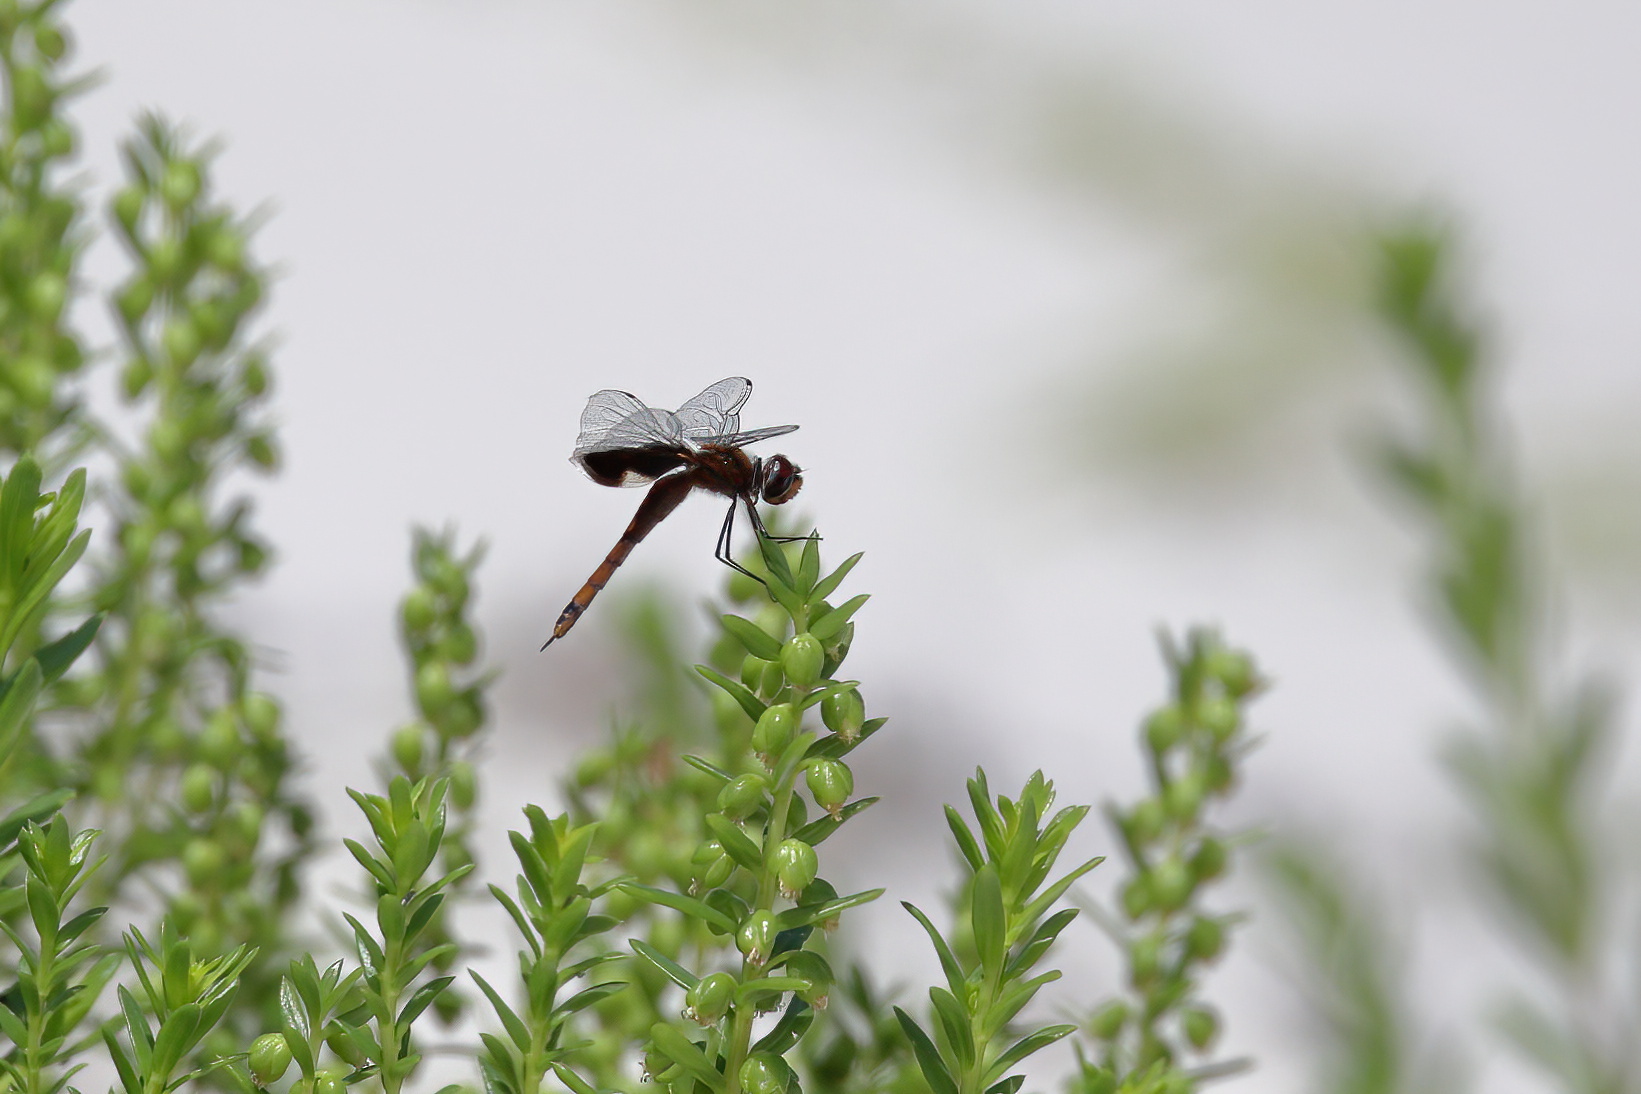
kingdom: Animalia
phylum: Arthropoda
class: Insecta
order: Odonata
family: Libellulidae
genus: Tramea
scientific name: Tramea carolina
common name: Carolina saddlebags
